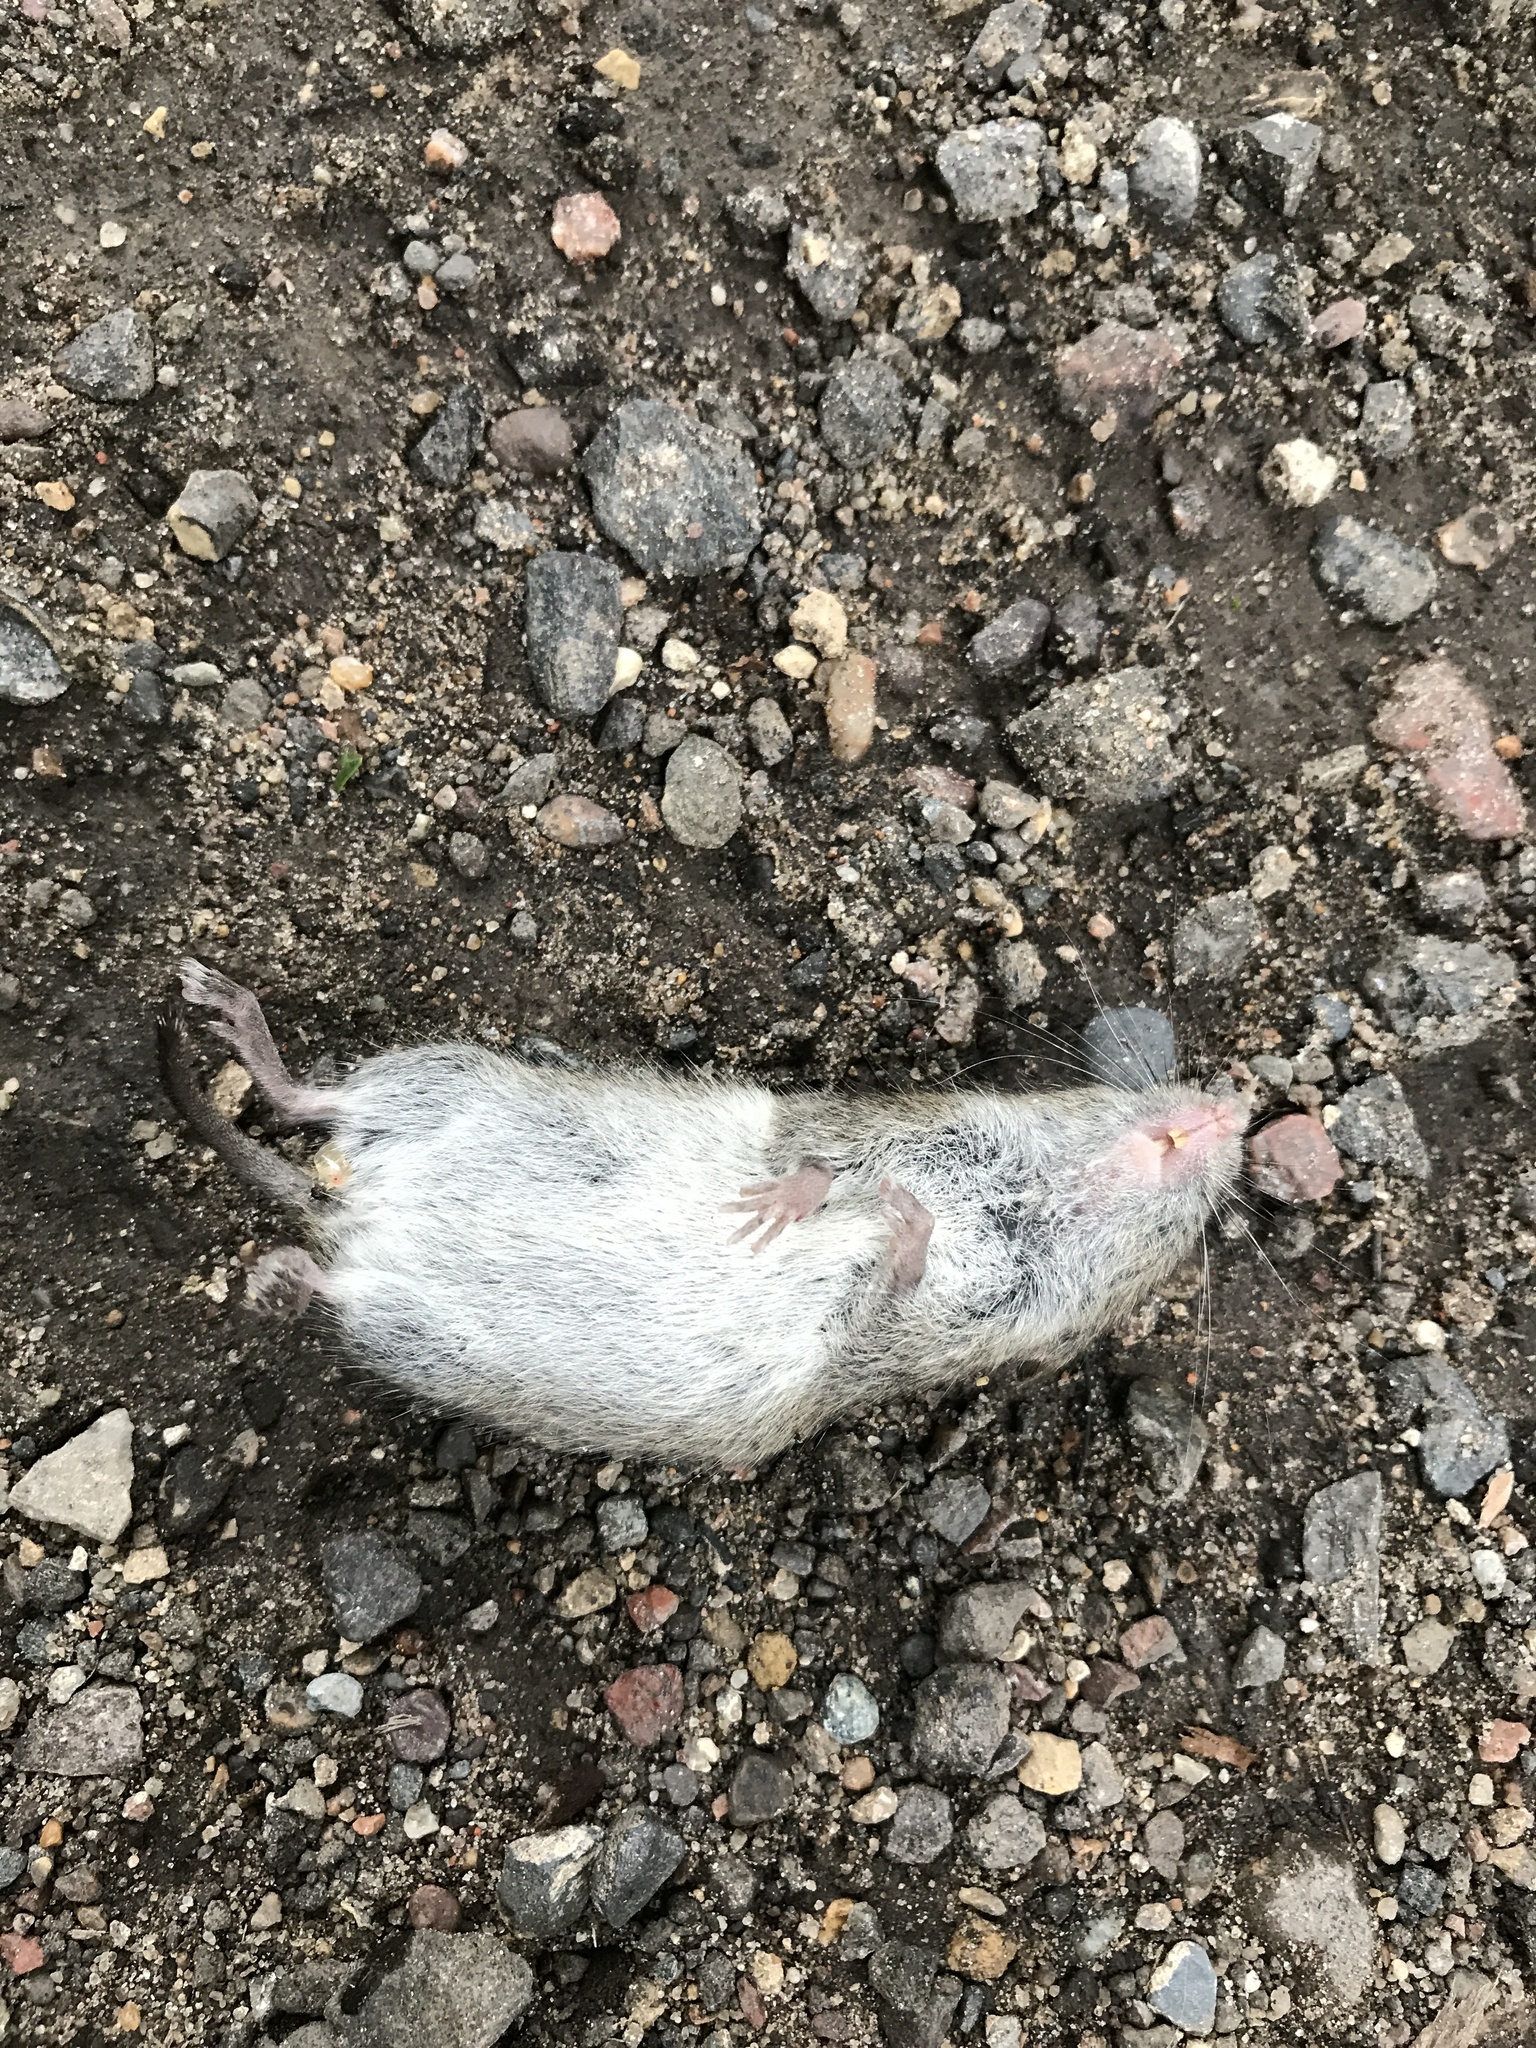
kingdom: Animalia
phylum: Chordata
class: Mammalia
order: Rodentia
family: Cricetidae
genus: Myodes
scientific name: Myodes gapperi
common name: Southern red-backed vole
